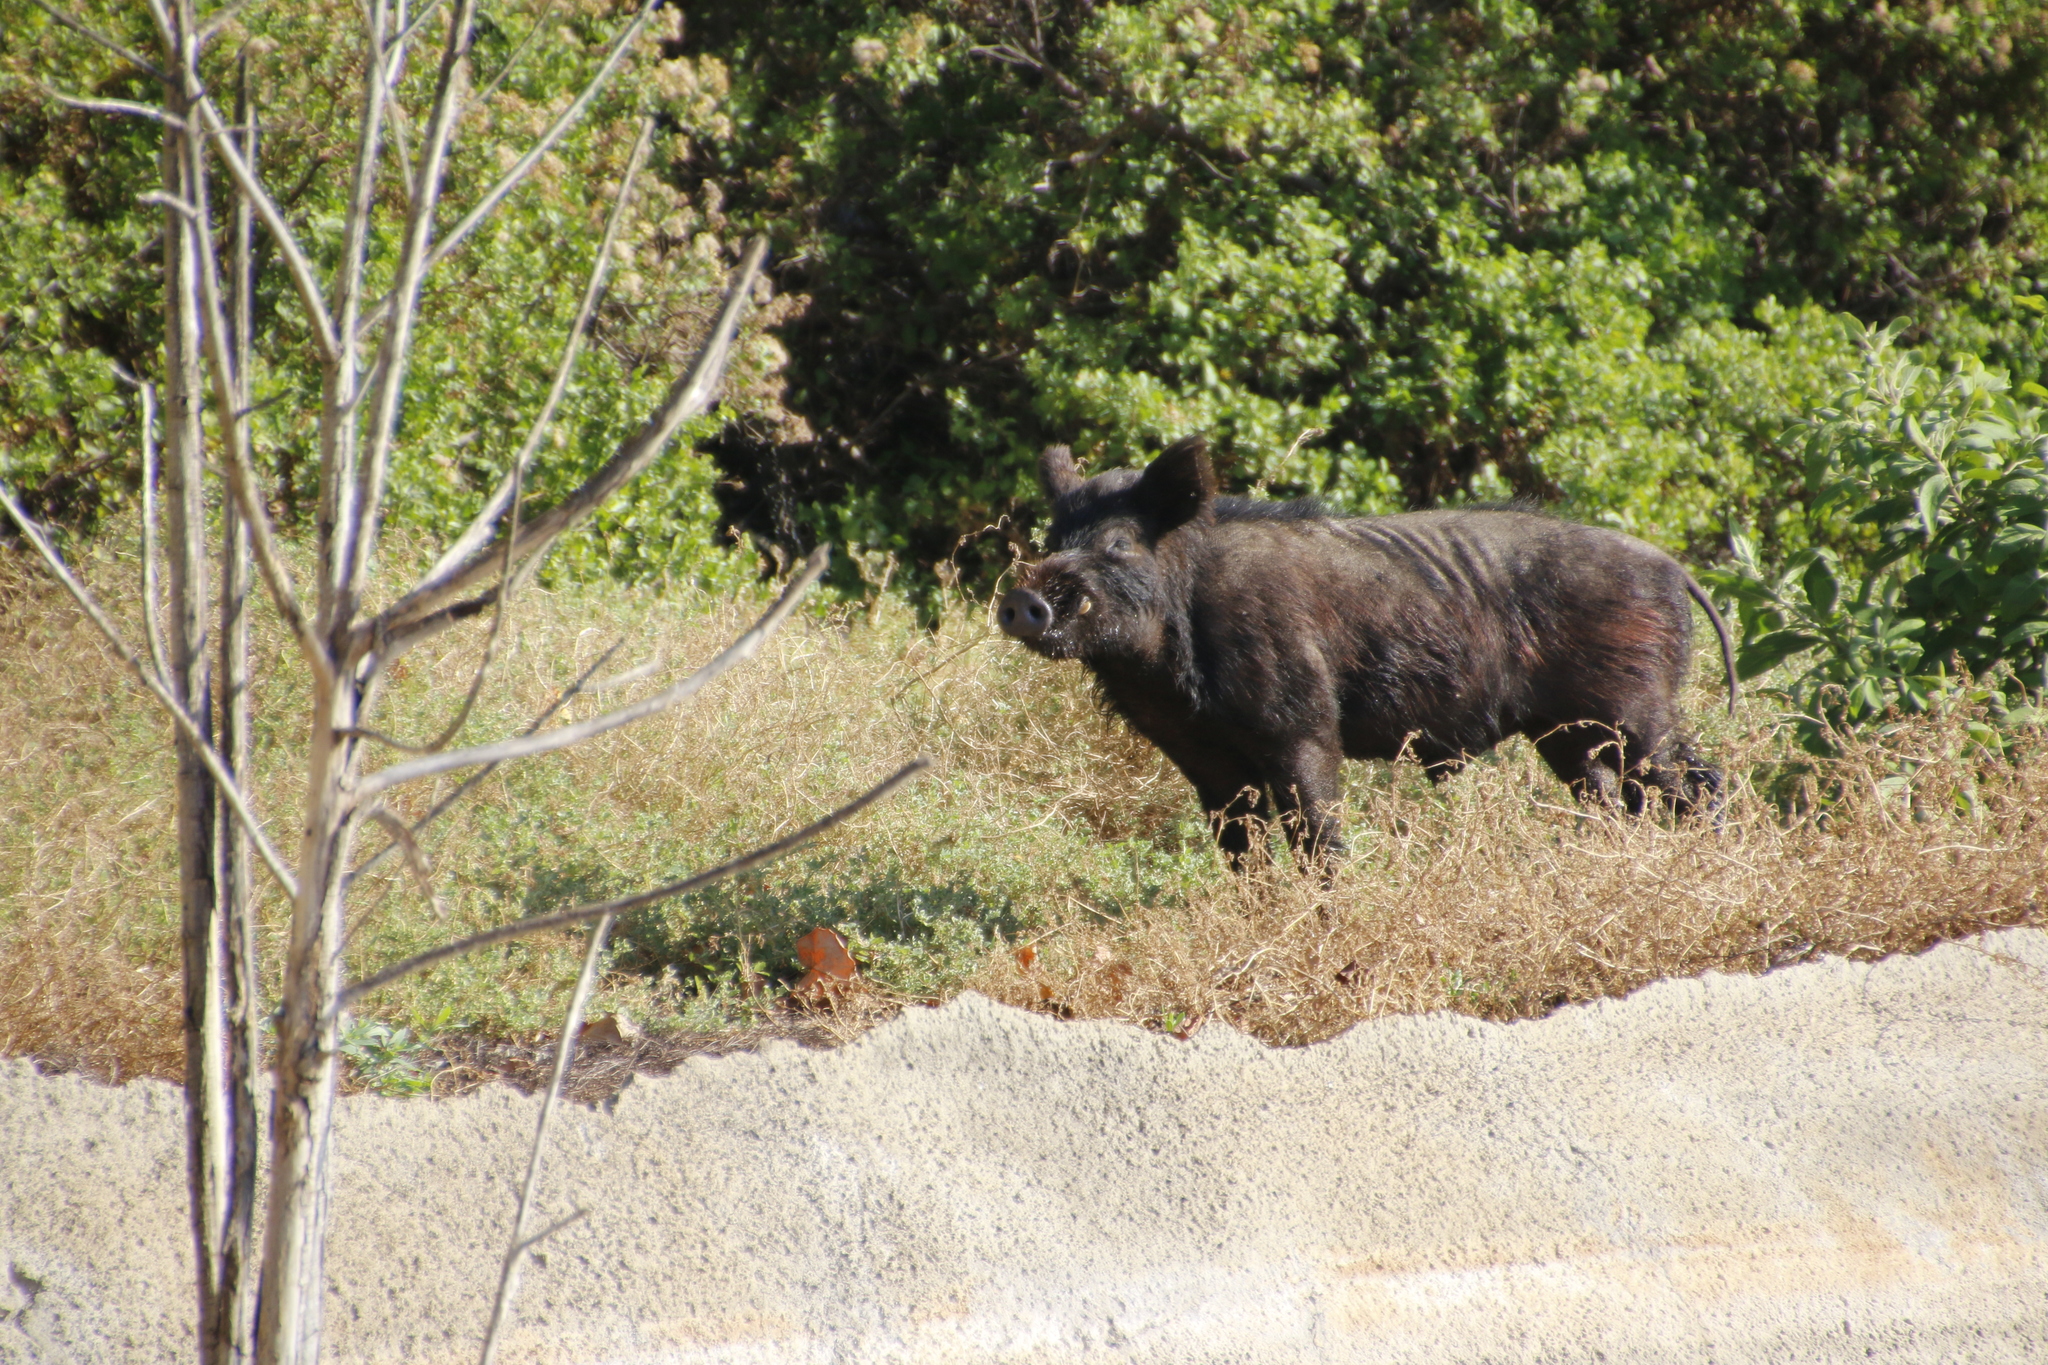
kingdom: Animalia
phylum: Chordata
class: Mammalia
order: Artiodactyla
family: Suidae
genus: Sus
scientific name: Sus scrofa
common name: Wild boar
